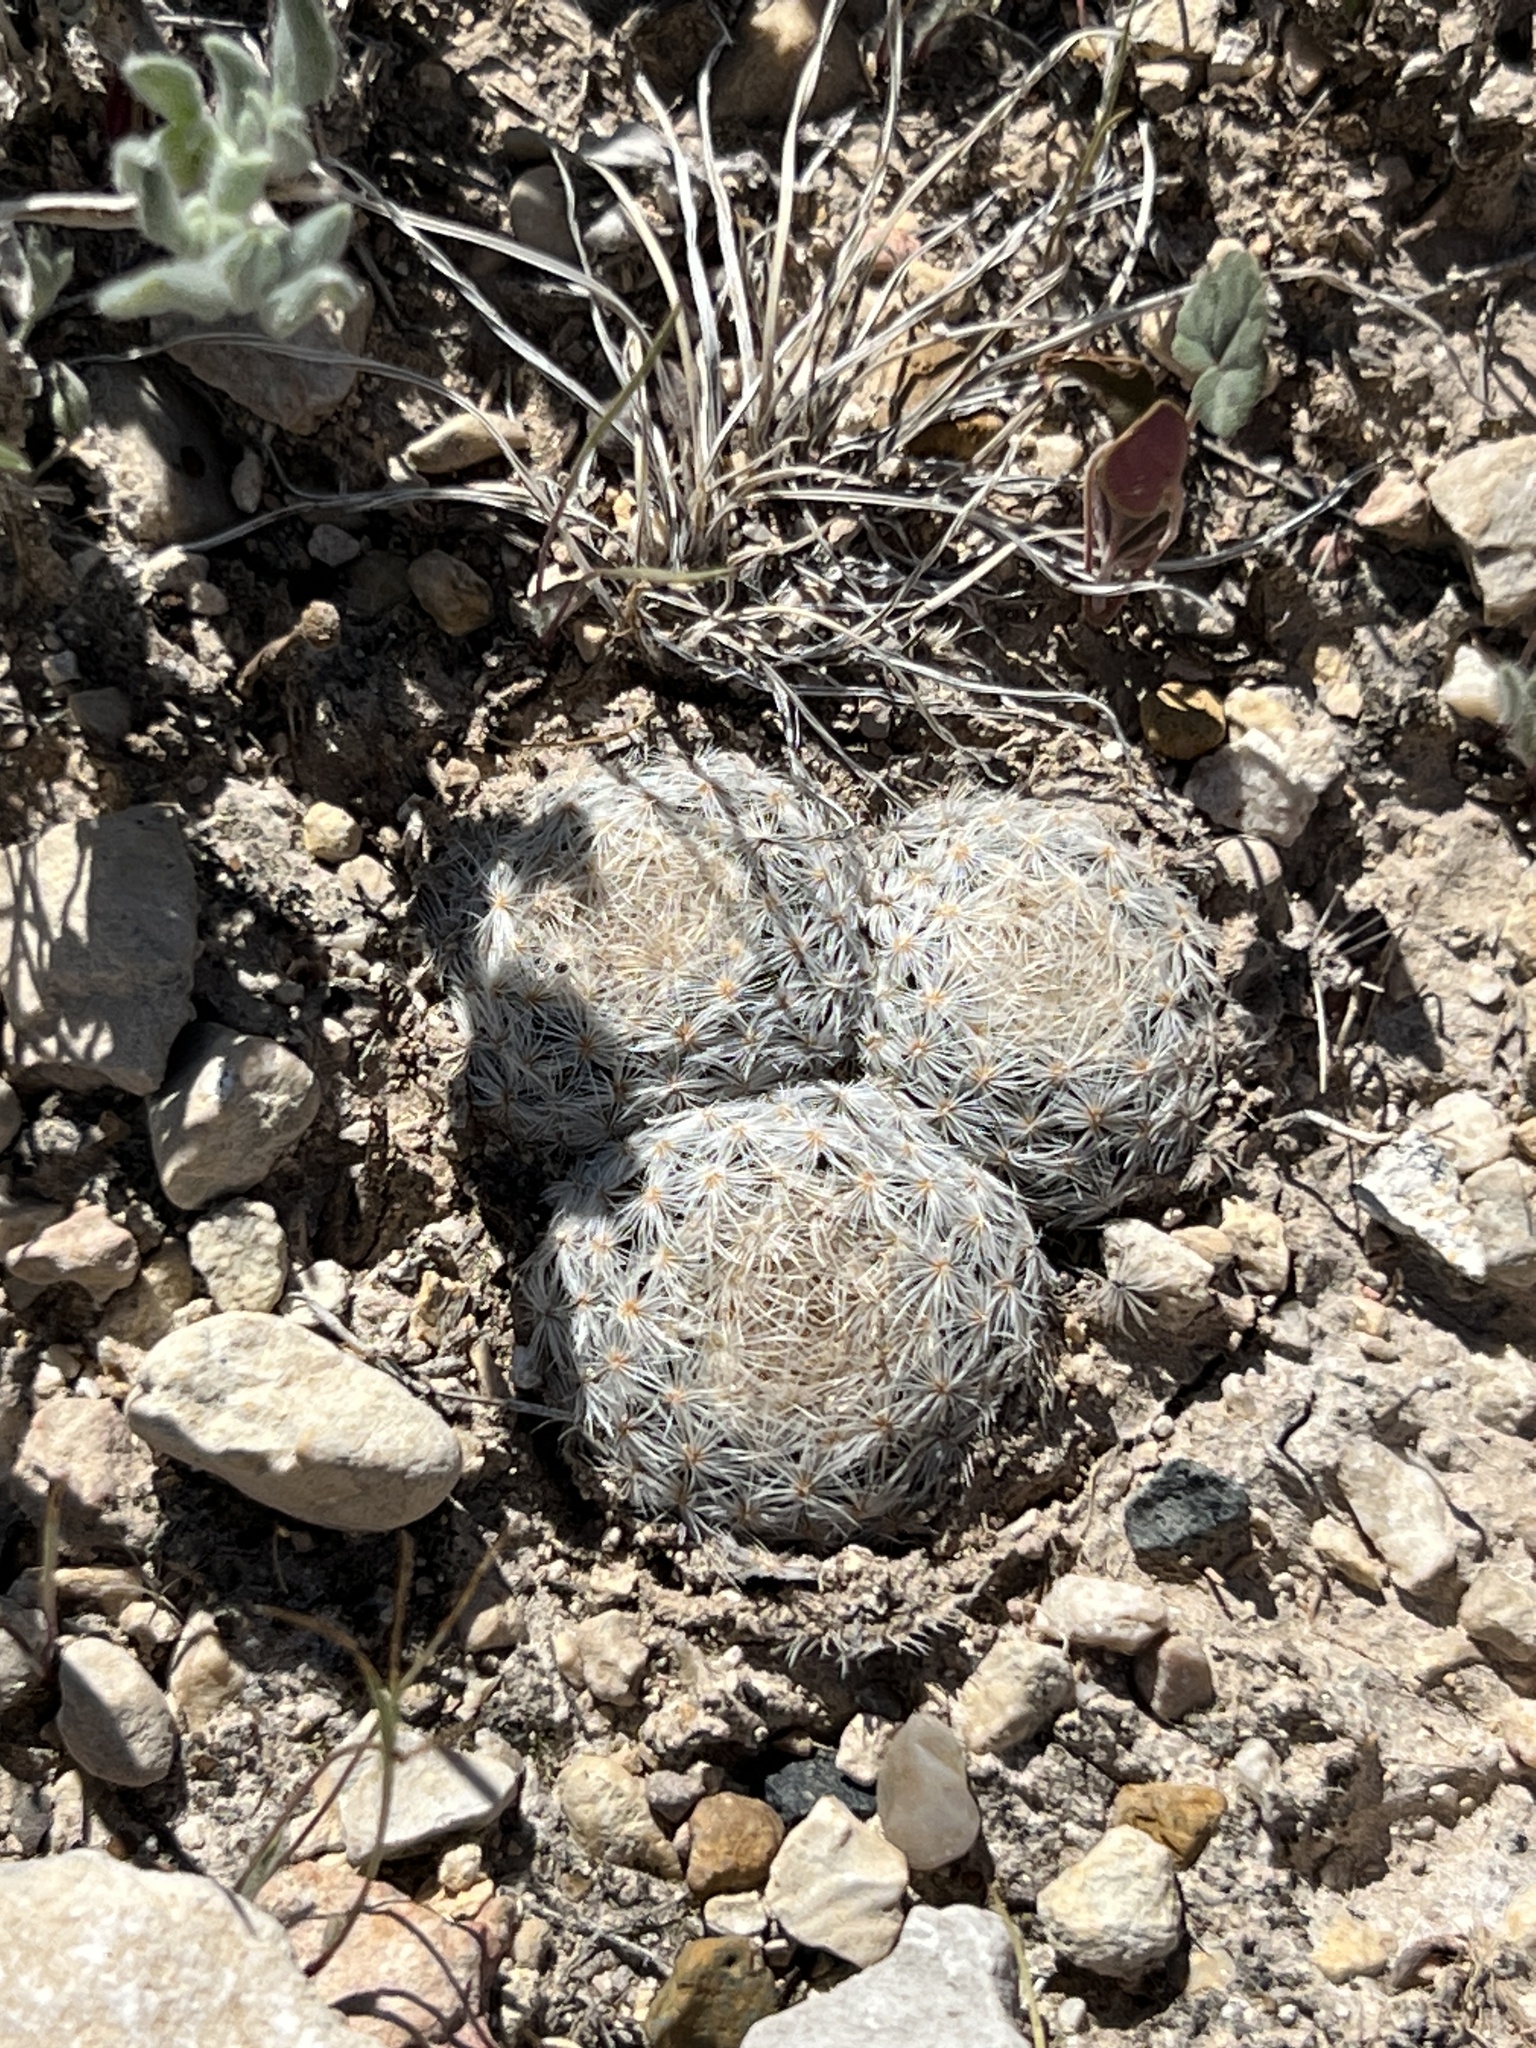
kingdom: Plantae
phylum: Tracheophyta
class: Magnoliopsida
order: Caryophyllales
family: Cactaceae
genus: Mammillaria
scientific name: Mammillaria lasiacantha
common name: Lace-spine nipple cactus
